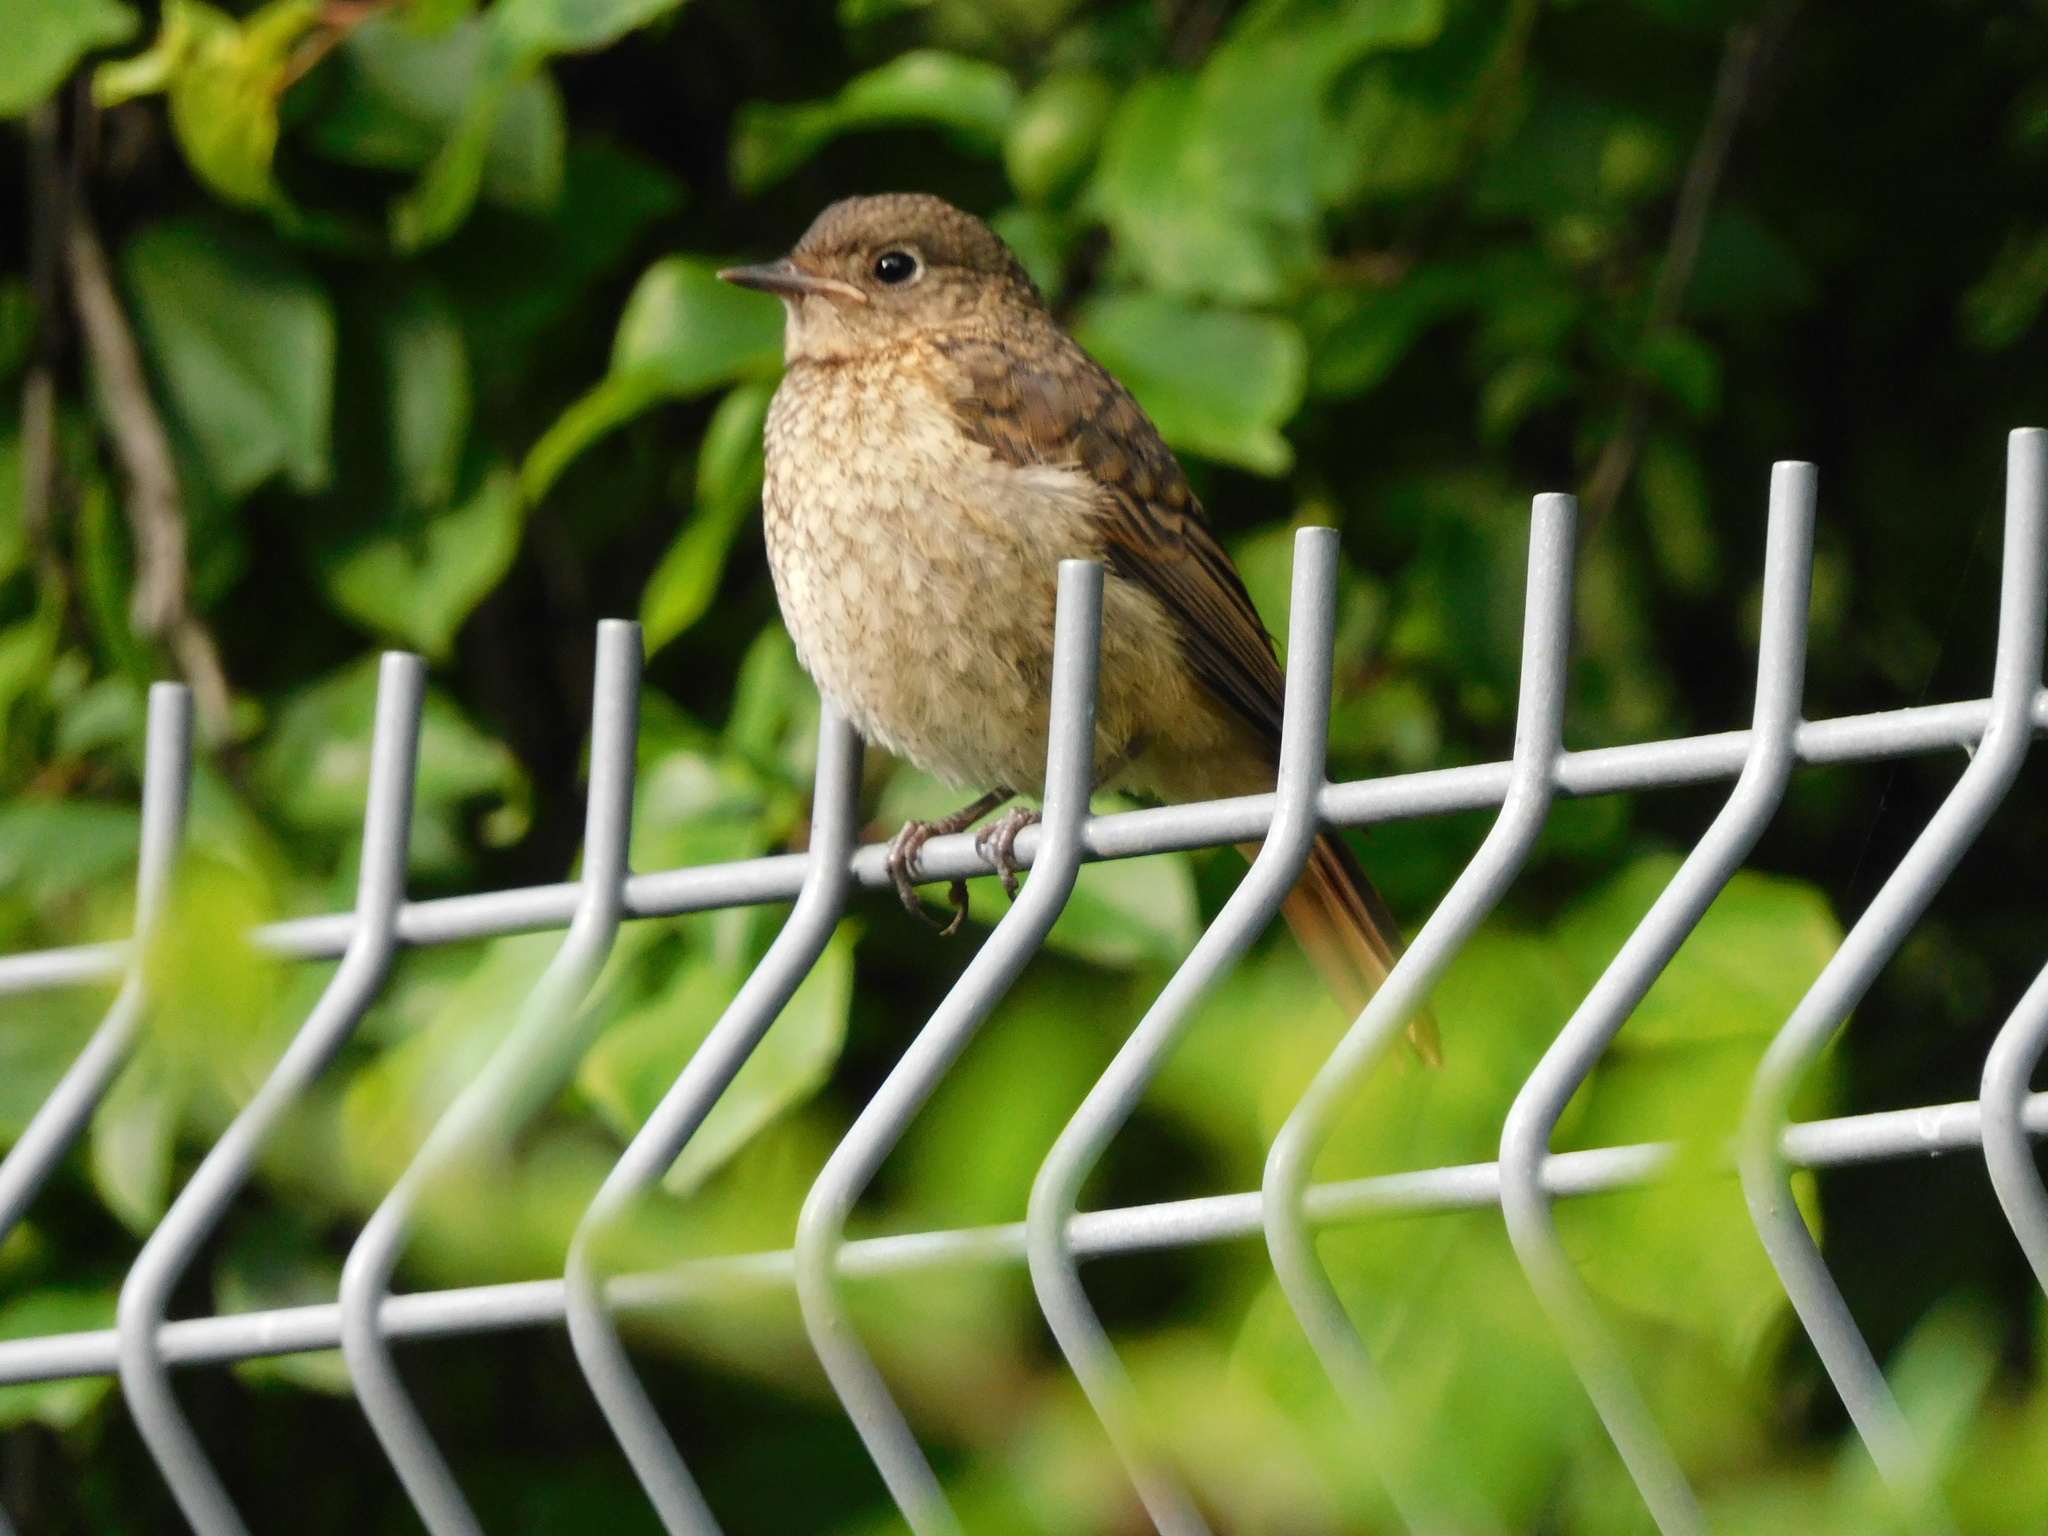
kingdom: Animalia
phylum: Chordata
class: Aves
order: Passeriformes
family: Muscicapidae
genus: Phoenicurus
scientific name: Phoenicurus phoenicurus
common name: Common redstart
